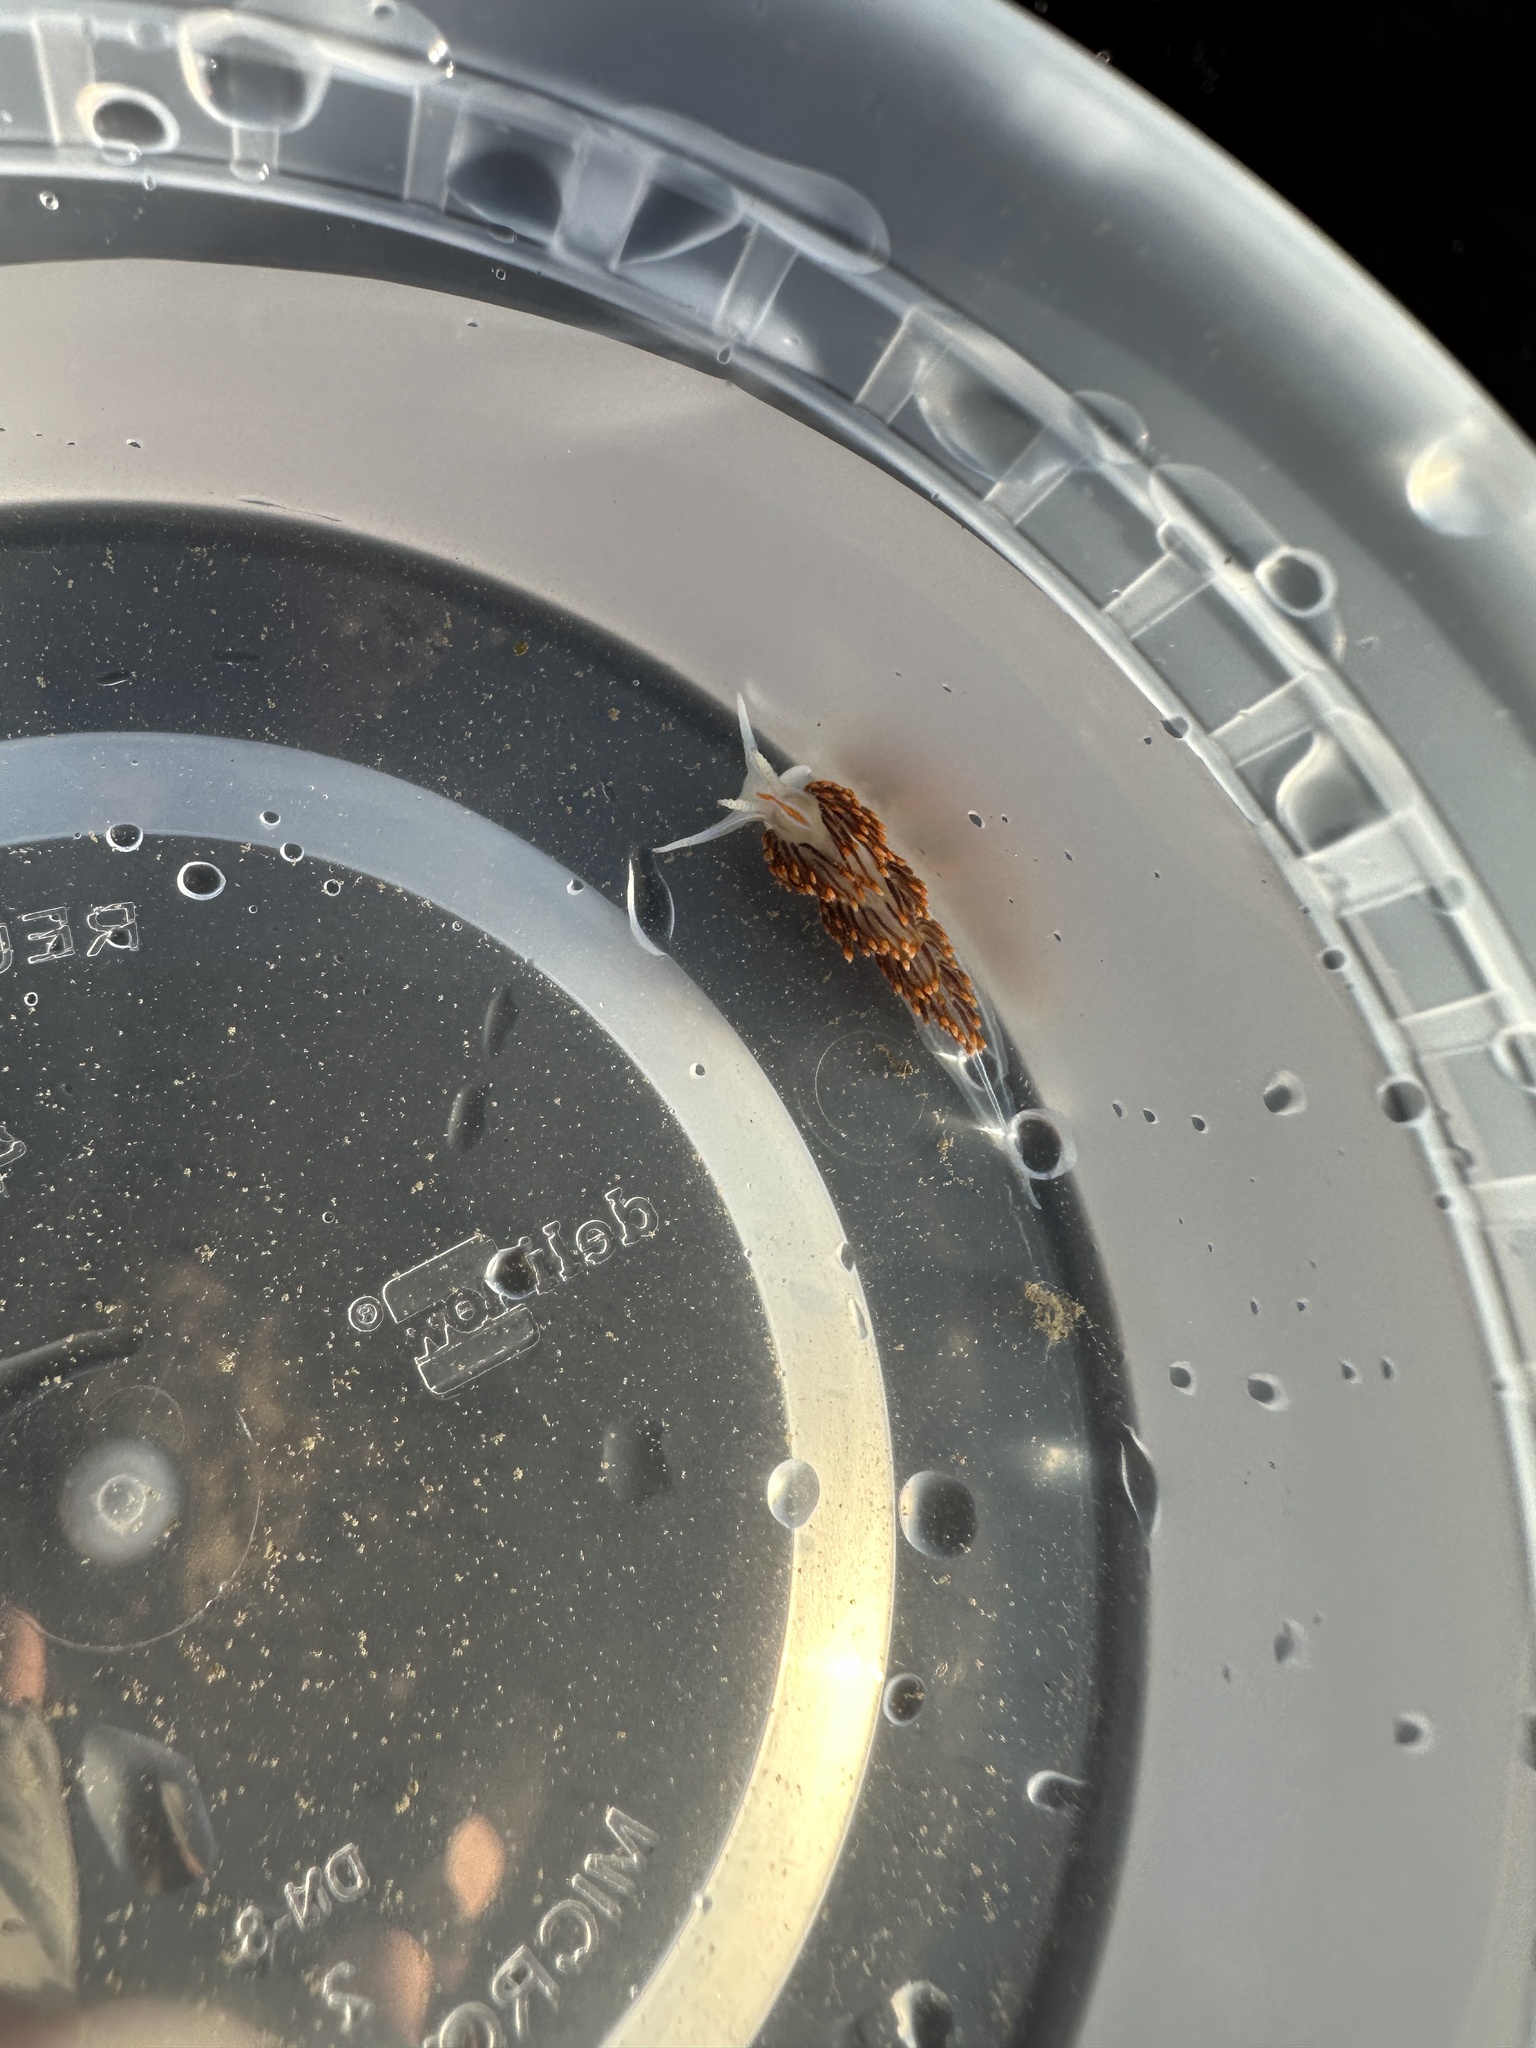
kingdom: Animalia
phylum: Mollusca
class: Gastropoda
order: Nudibranchia
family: Myrrhinidae
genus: Hermissenda
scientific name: Hermissenda opalescens
